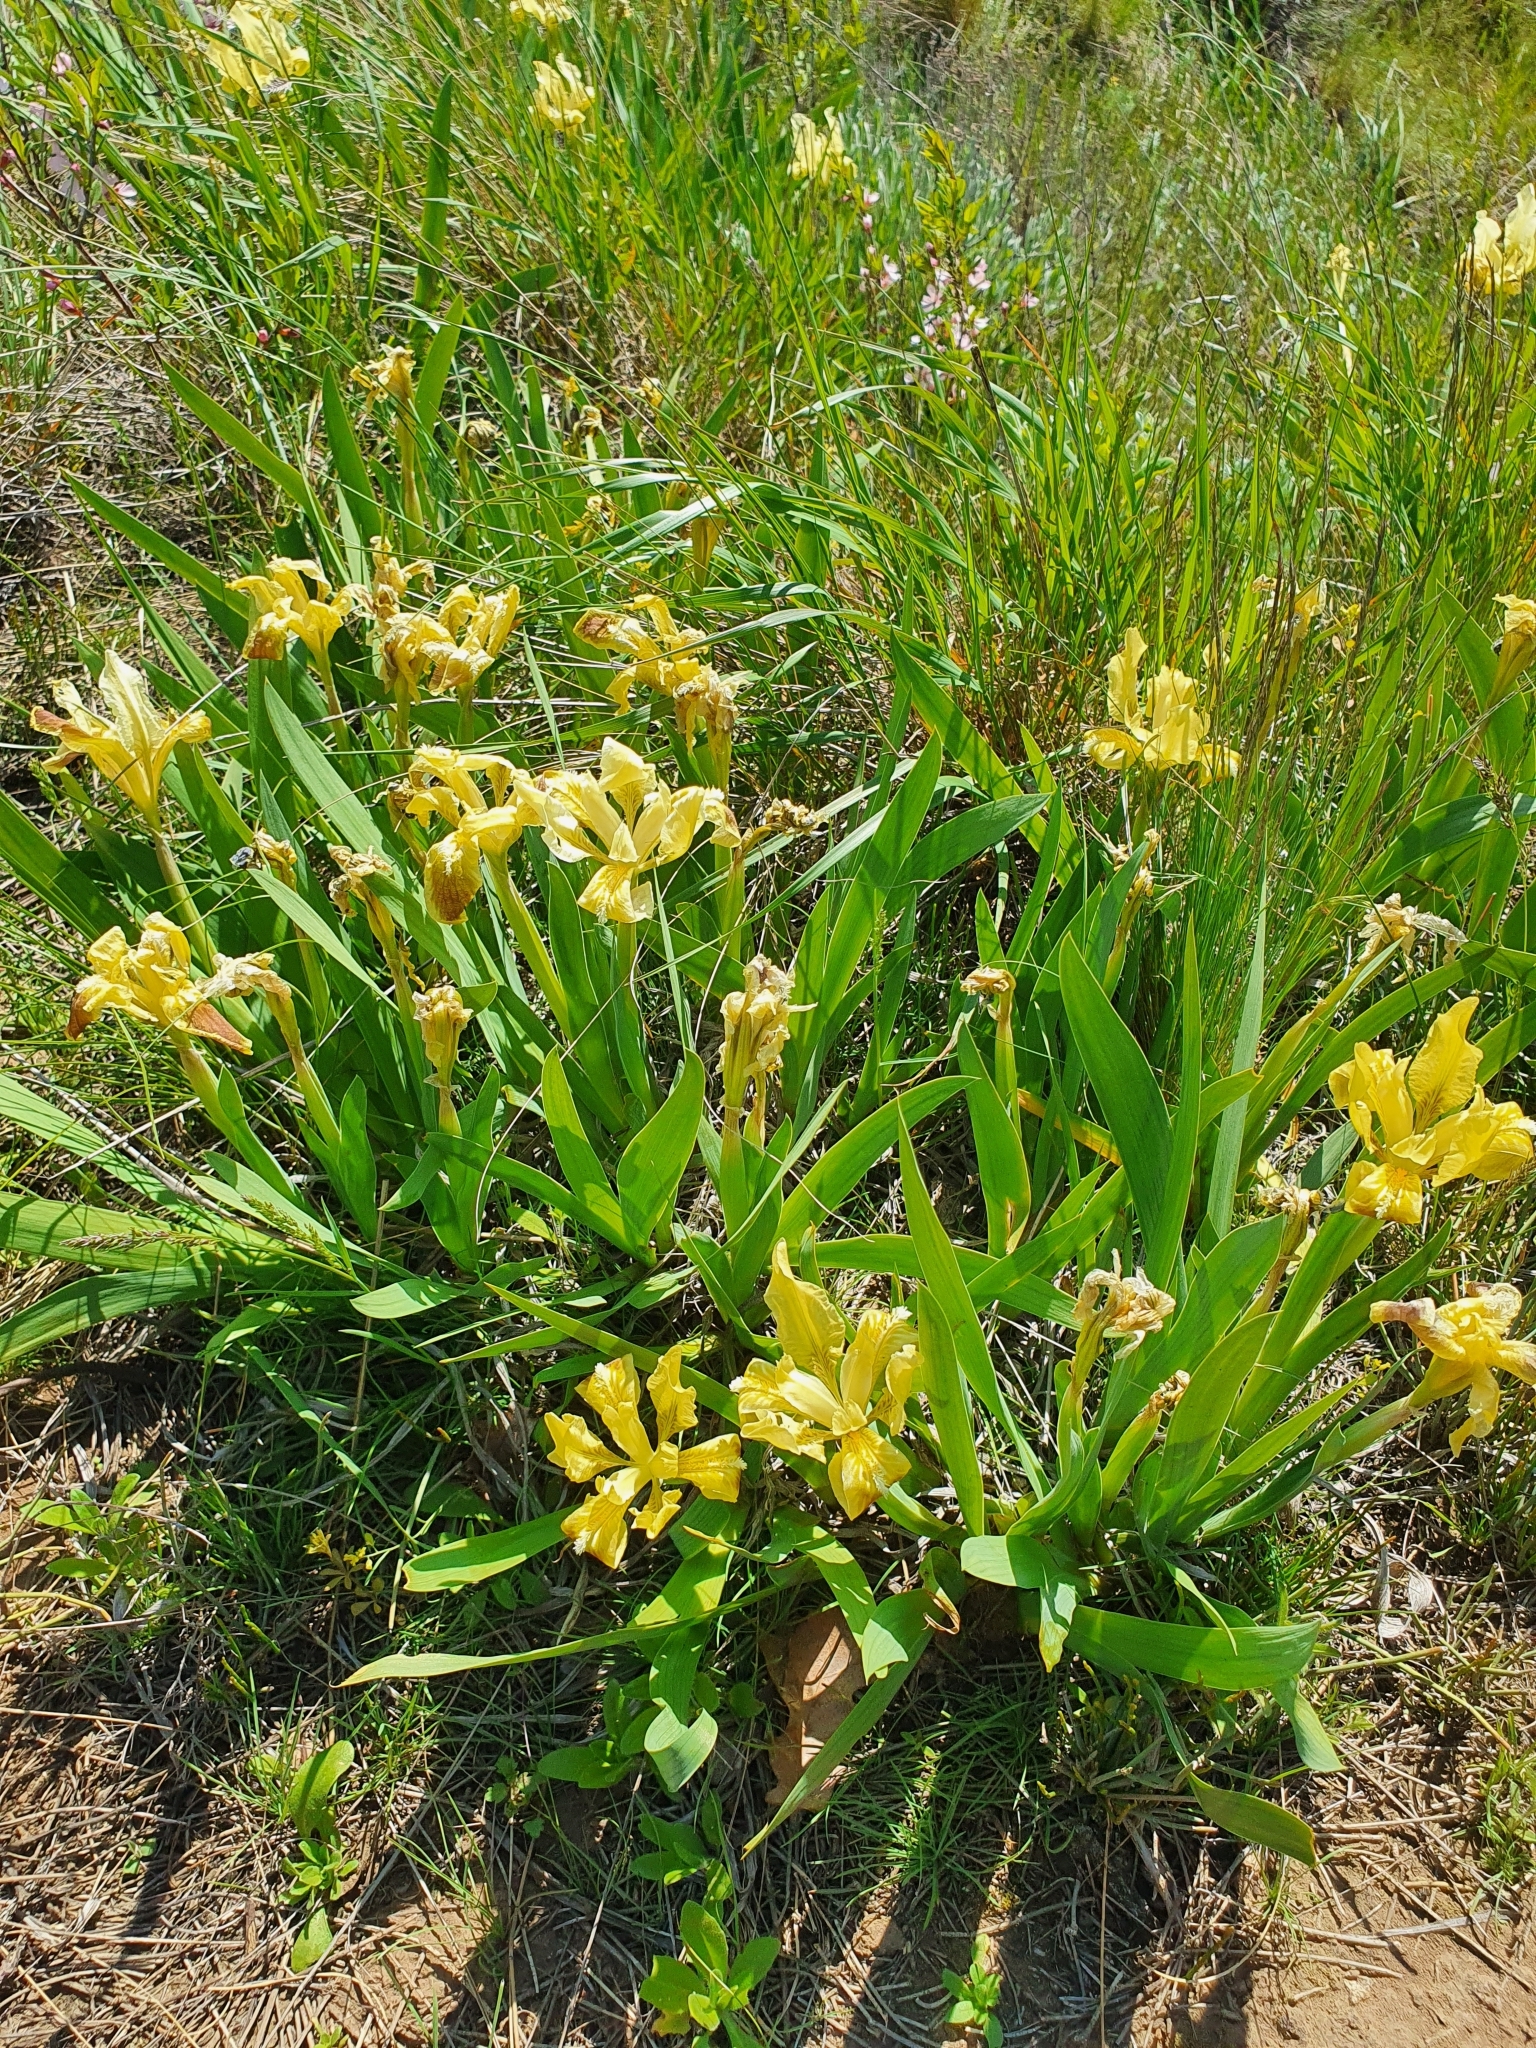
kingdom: Plantae
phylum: Tracheophyta
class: Liliopsida
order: Asparagales
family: Iridaceae
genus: Iris
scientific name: Iris pumila
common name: Dwarf iris
